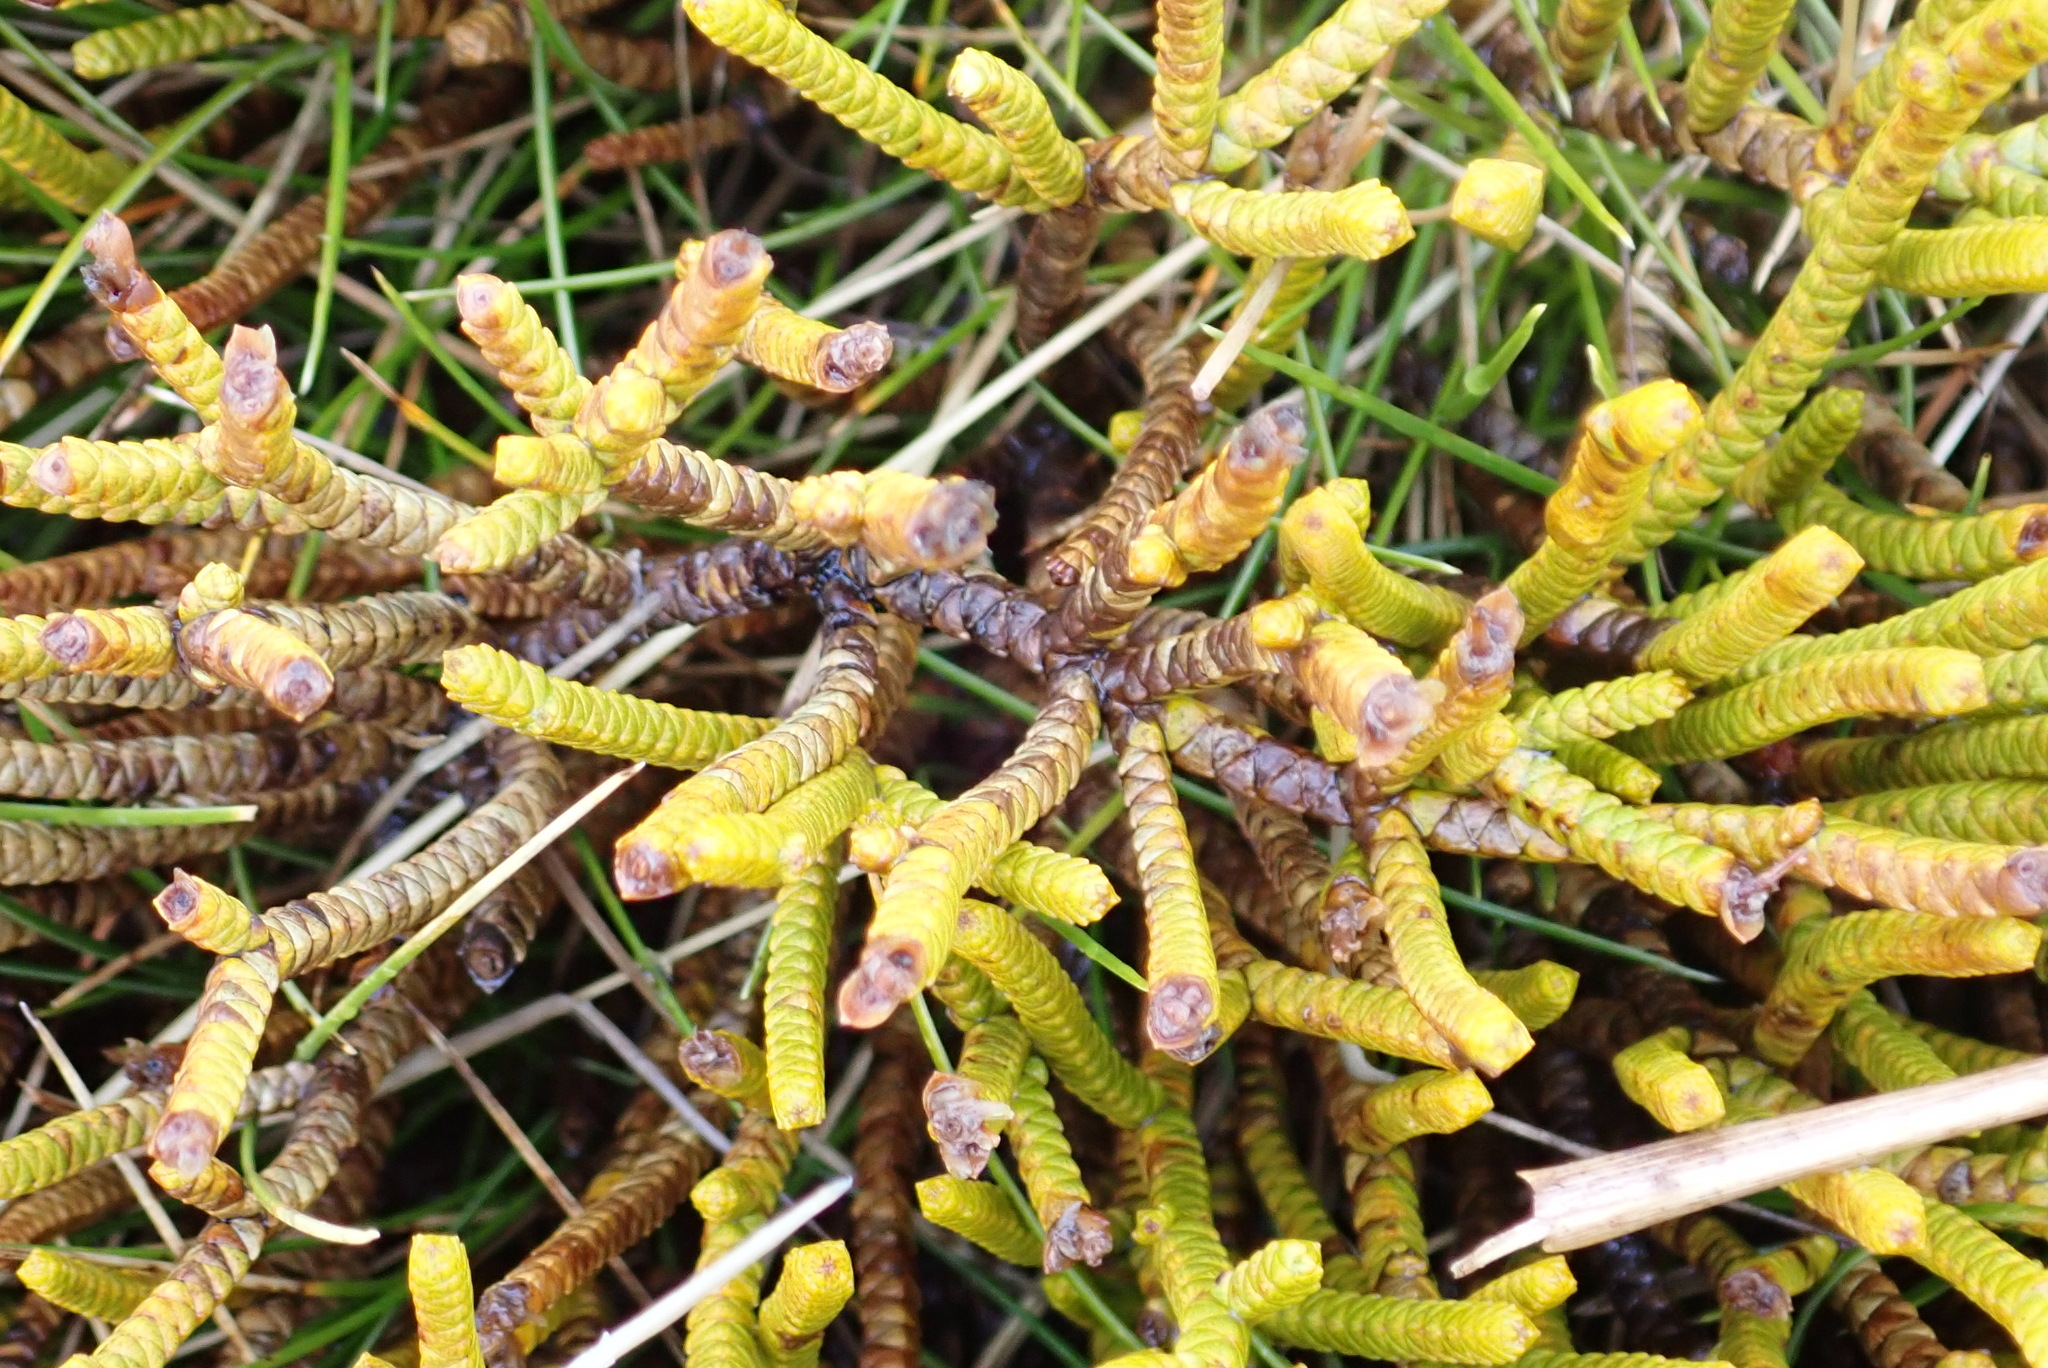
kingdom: Plantae
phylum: Tracheophyta
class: Magnoliopsida
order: Lamiales
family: Plantaginaceae
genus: Veronica
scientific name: Veronica lycopodioides
